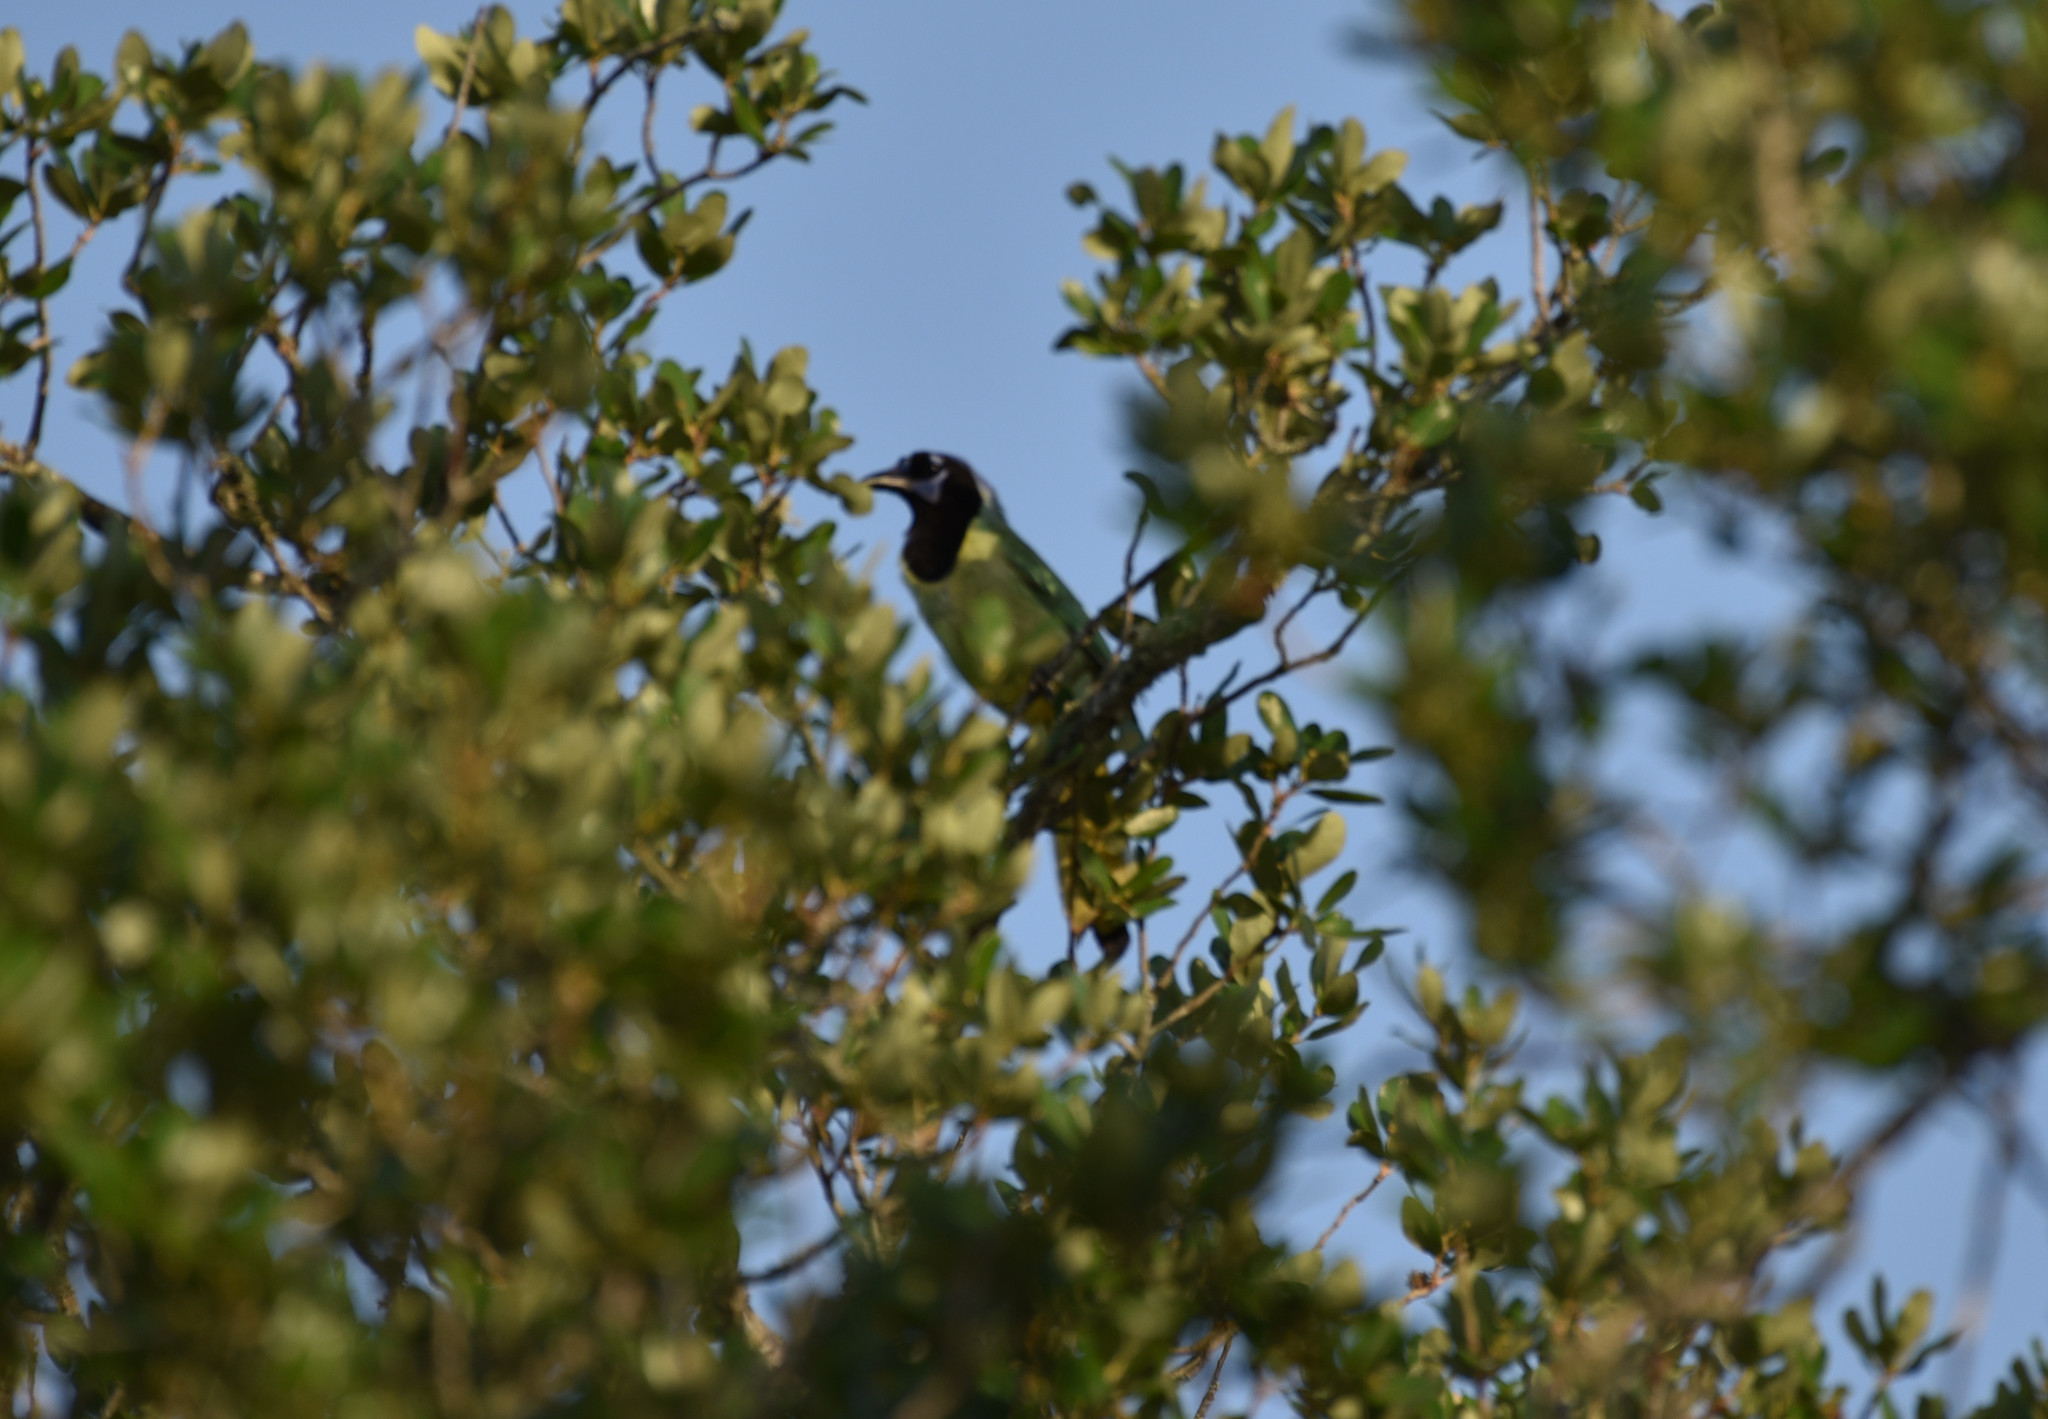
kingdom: Animalia
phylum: Chordata
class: Aves
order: Passeriformes
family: Corvidae
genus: Cyanocorax
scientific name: Cyanocorax yncas
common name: Green jay
